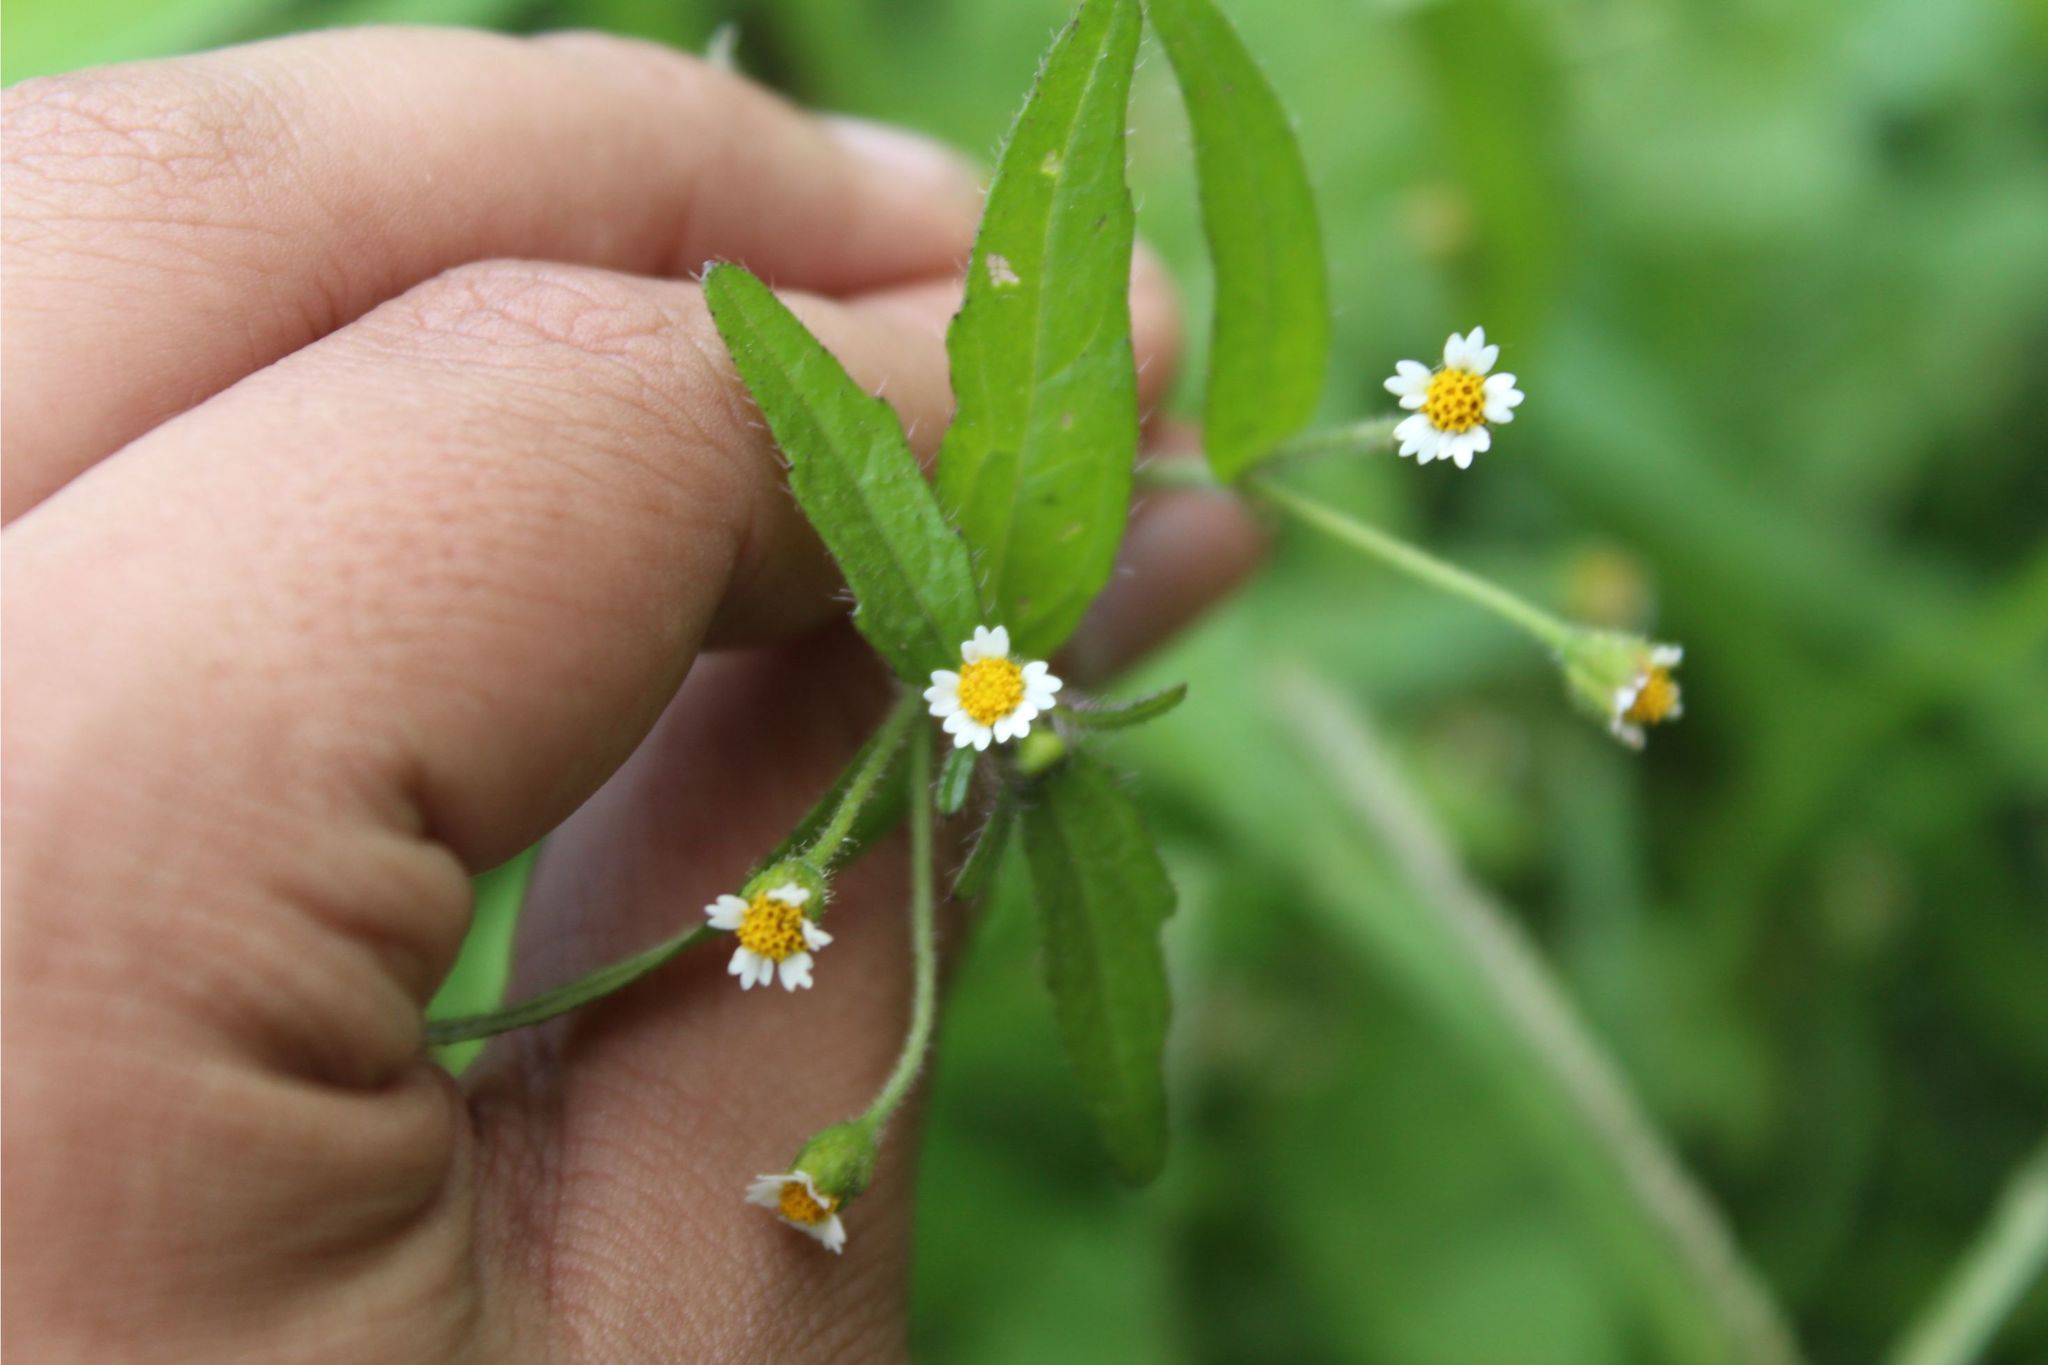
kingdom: Plantae
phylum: Tracheophyta
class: Magnoliopsida
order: Asterales
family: Asteraceae
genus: Galinsoga
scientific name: Galinsoga quadriradiata
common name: Shaggy soldier
